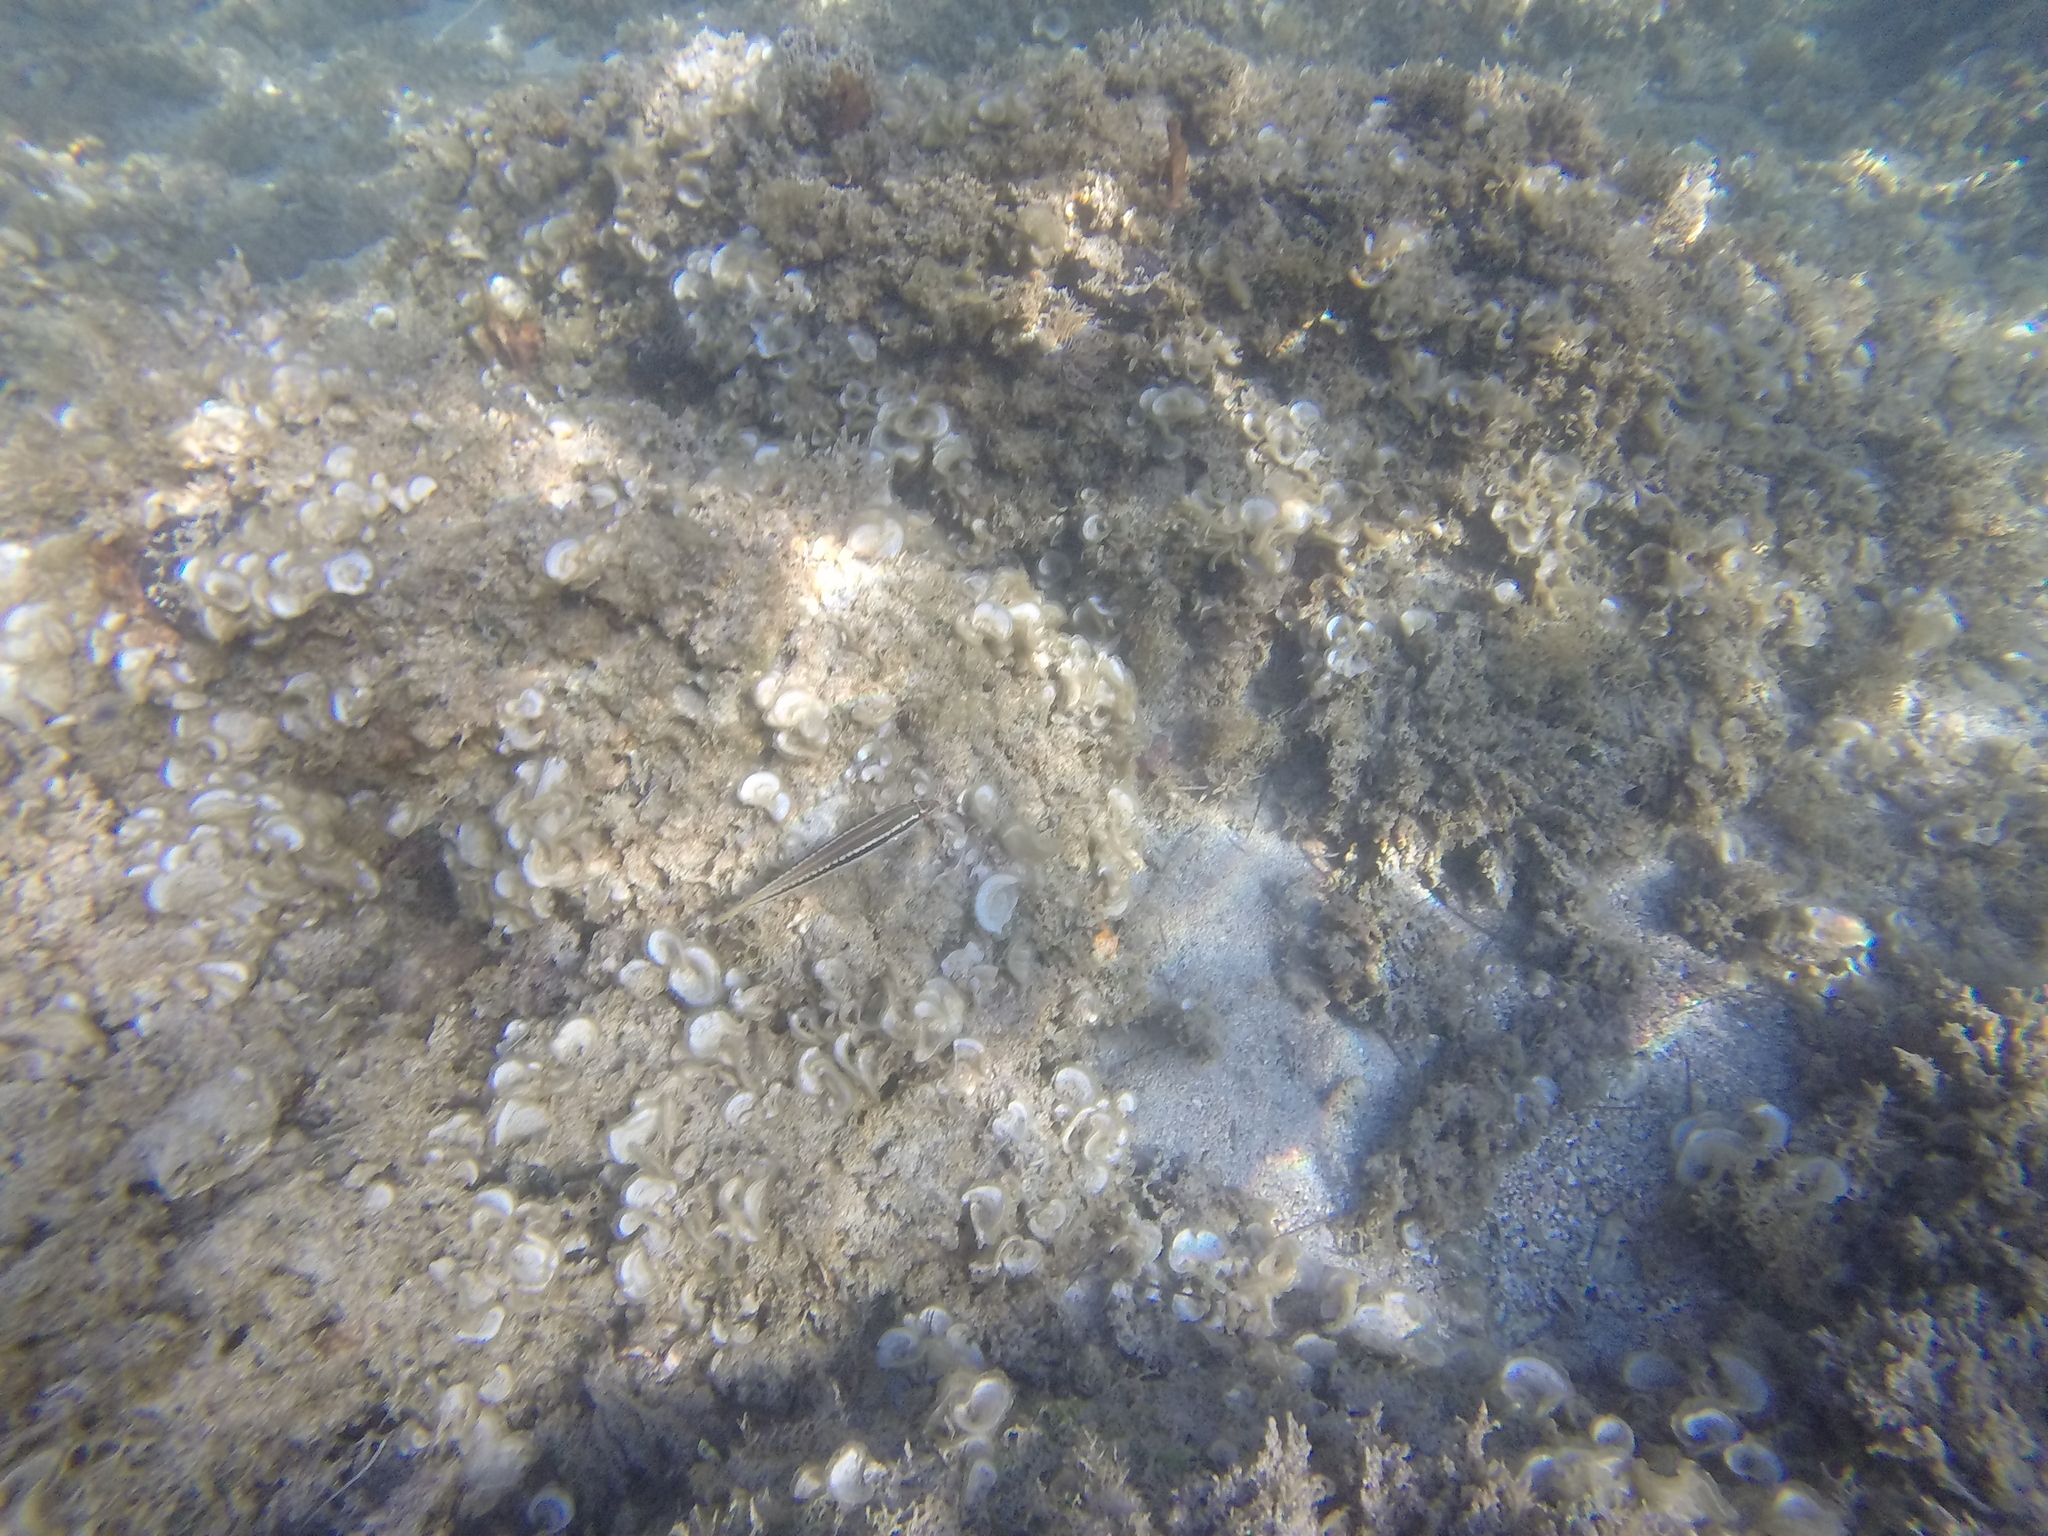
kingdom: Animalia
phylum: Chordata
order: Perciformes
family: Labridae
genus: Coris
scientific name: Coris julis
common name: Rainbow wrasse
